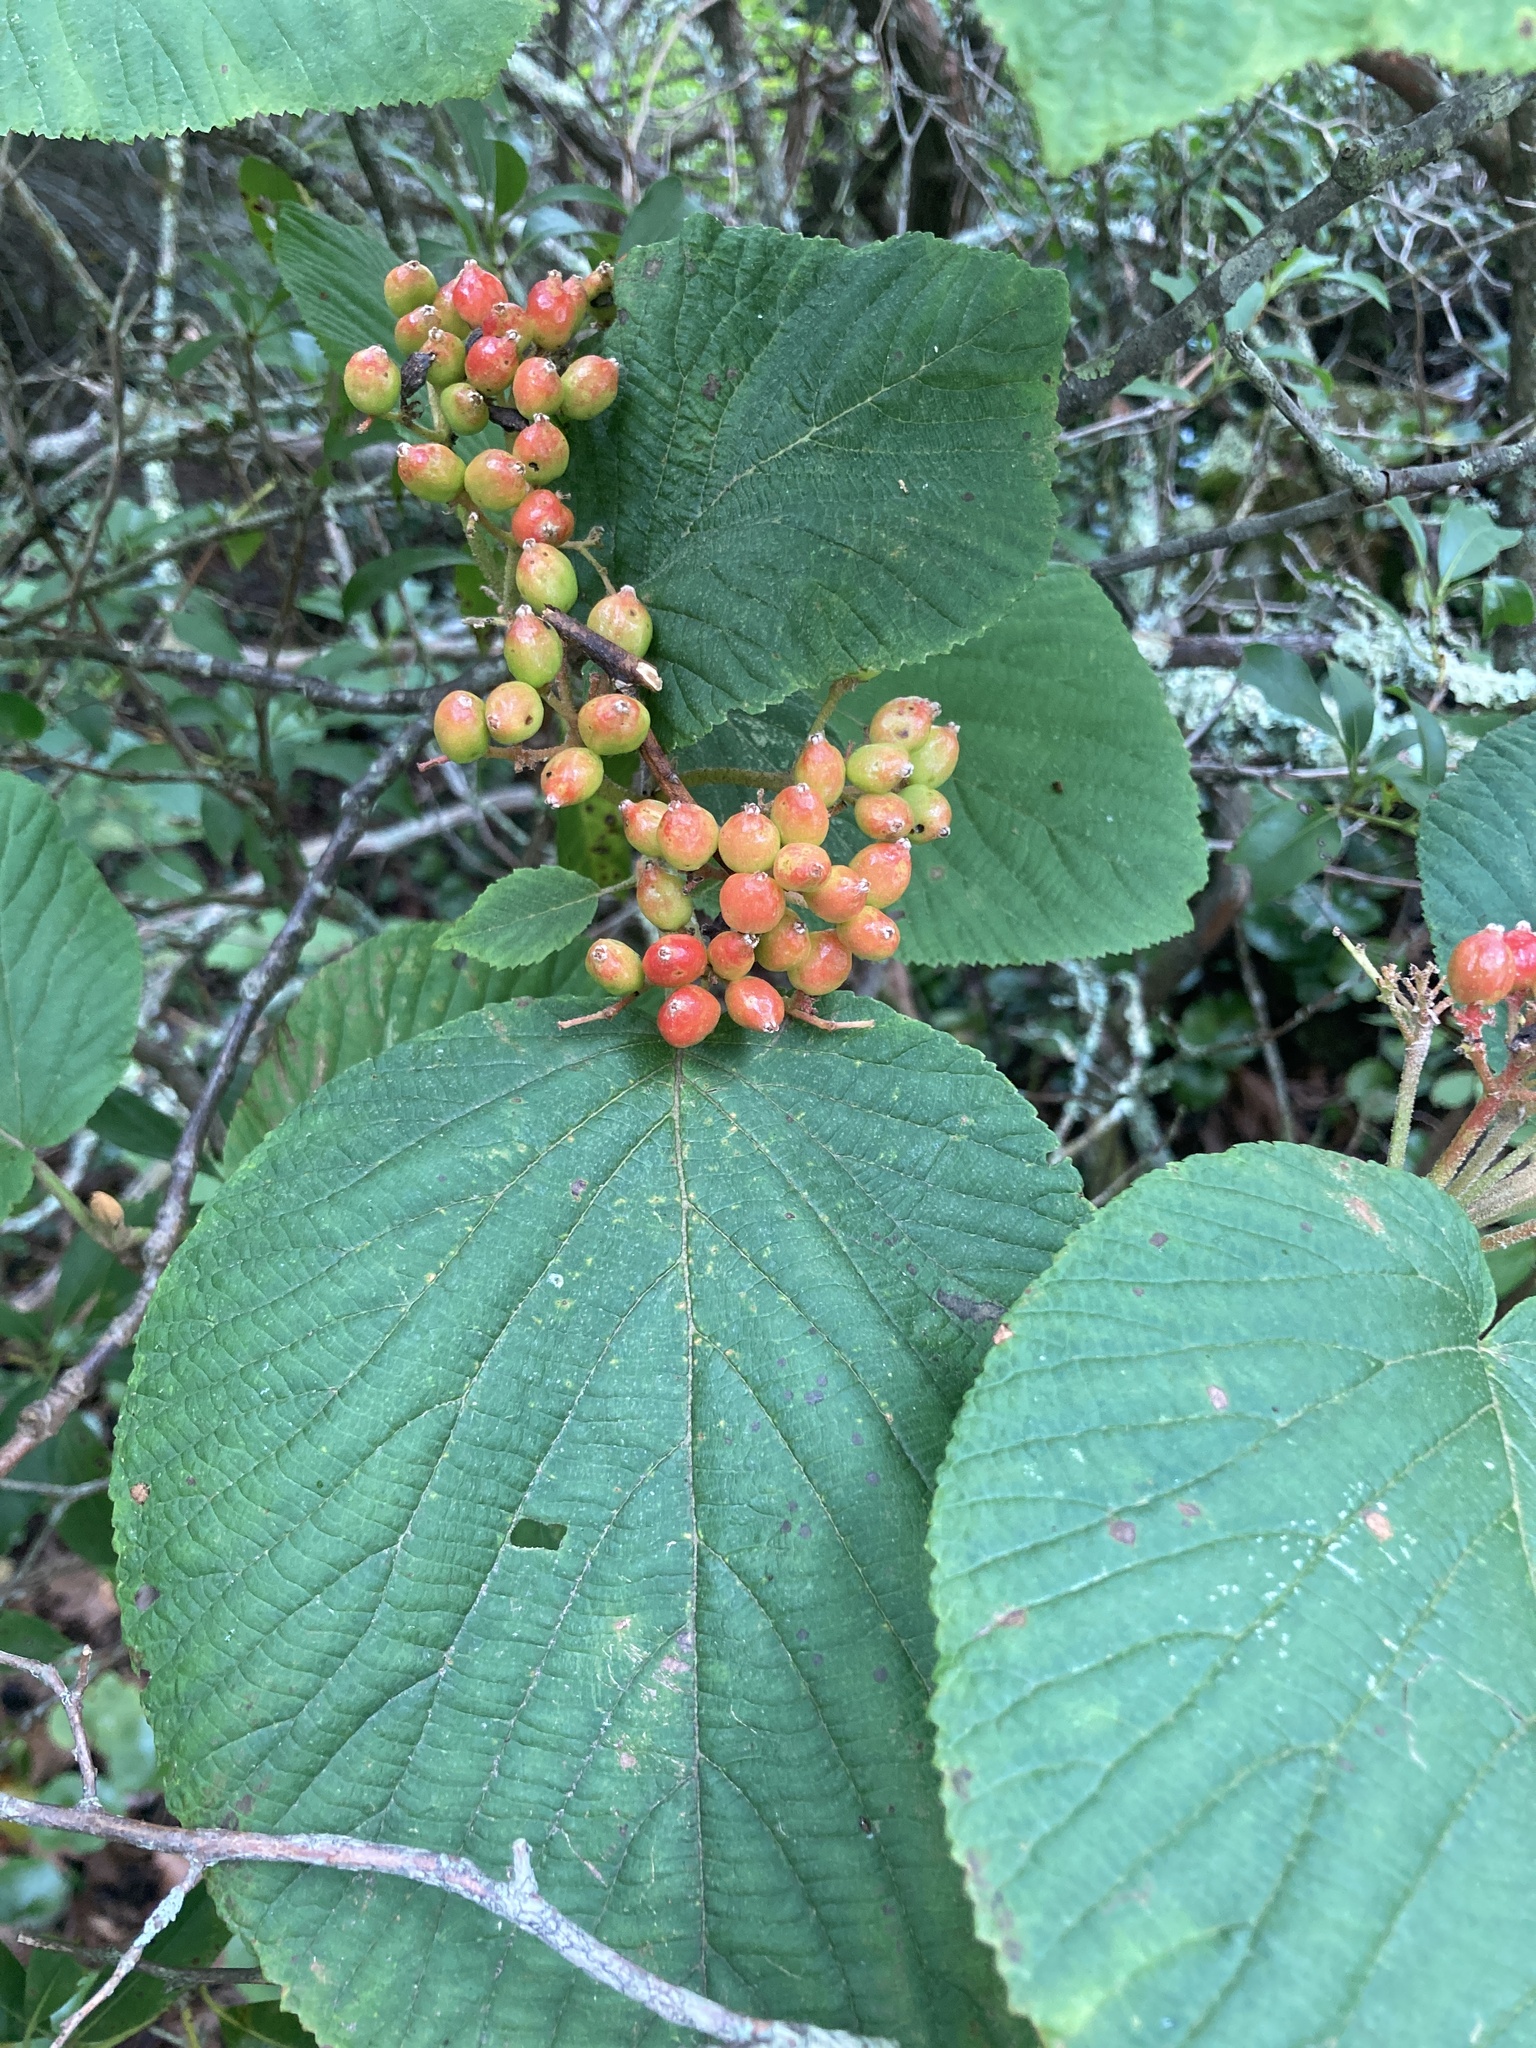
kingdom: Plantae
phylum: Tracheophyta
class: Magnoliopsida
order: Dipsacales
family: Viburnaceae
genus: Viburnum
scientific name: Viburnum lantanoides
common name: Hobblebush
